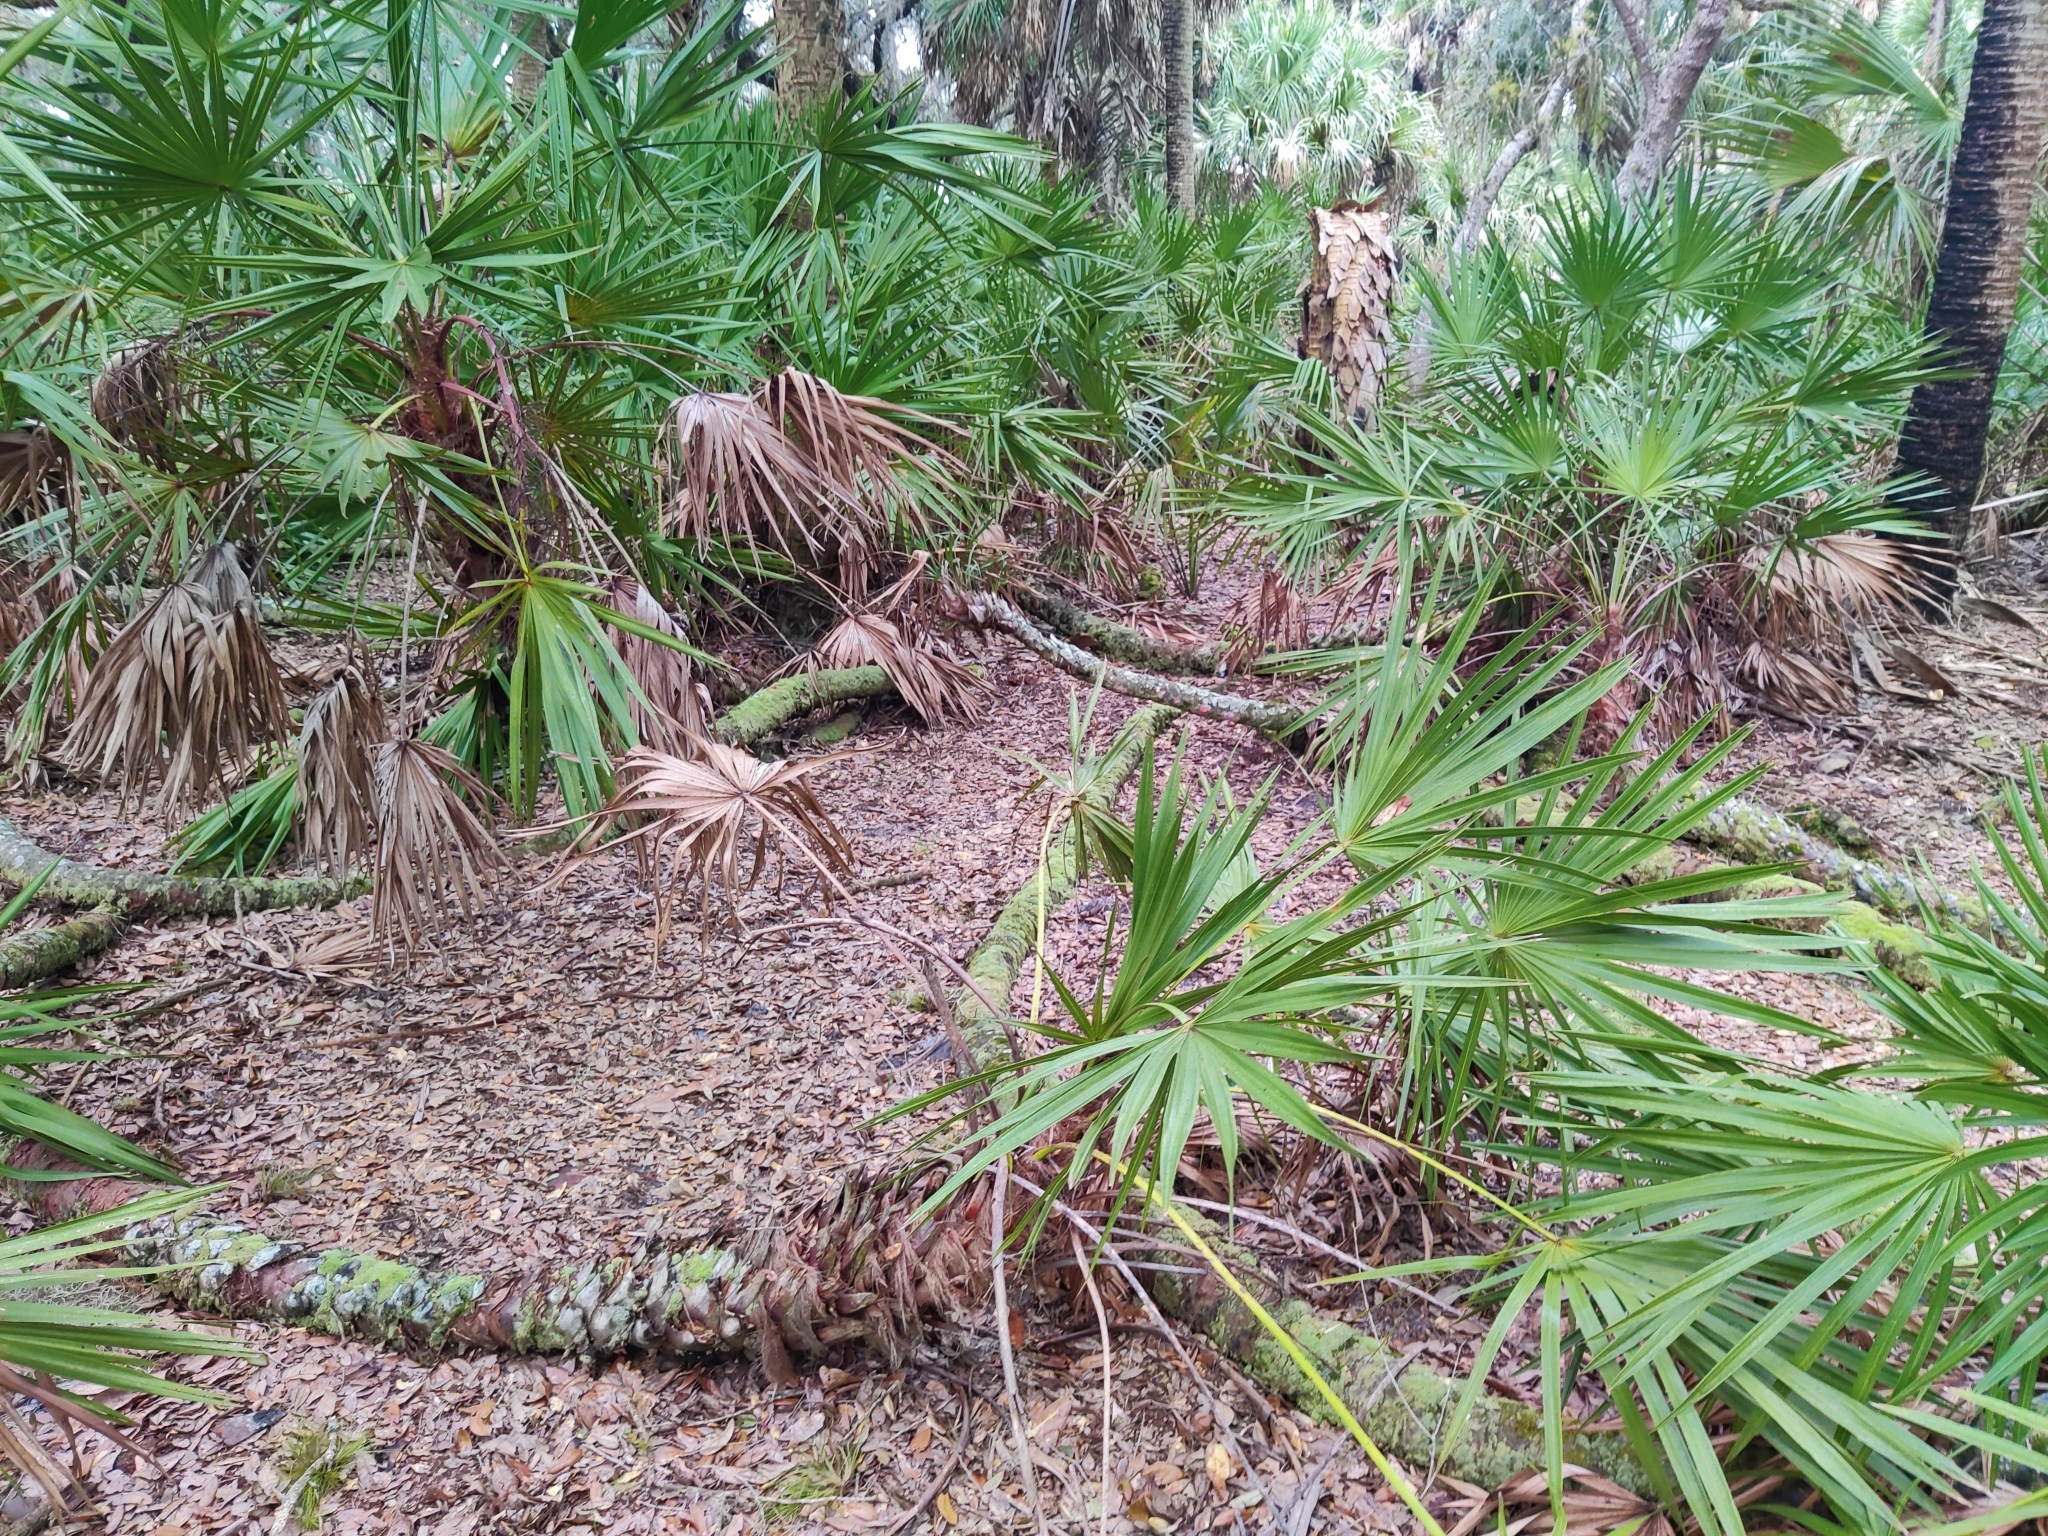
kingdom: Plantae
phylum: Tracheophyta
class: Liliopsida
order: Arecales
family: Arecaceae
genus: Serenoa
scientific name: Serenoa repens
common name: Saw-palmetto
